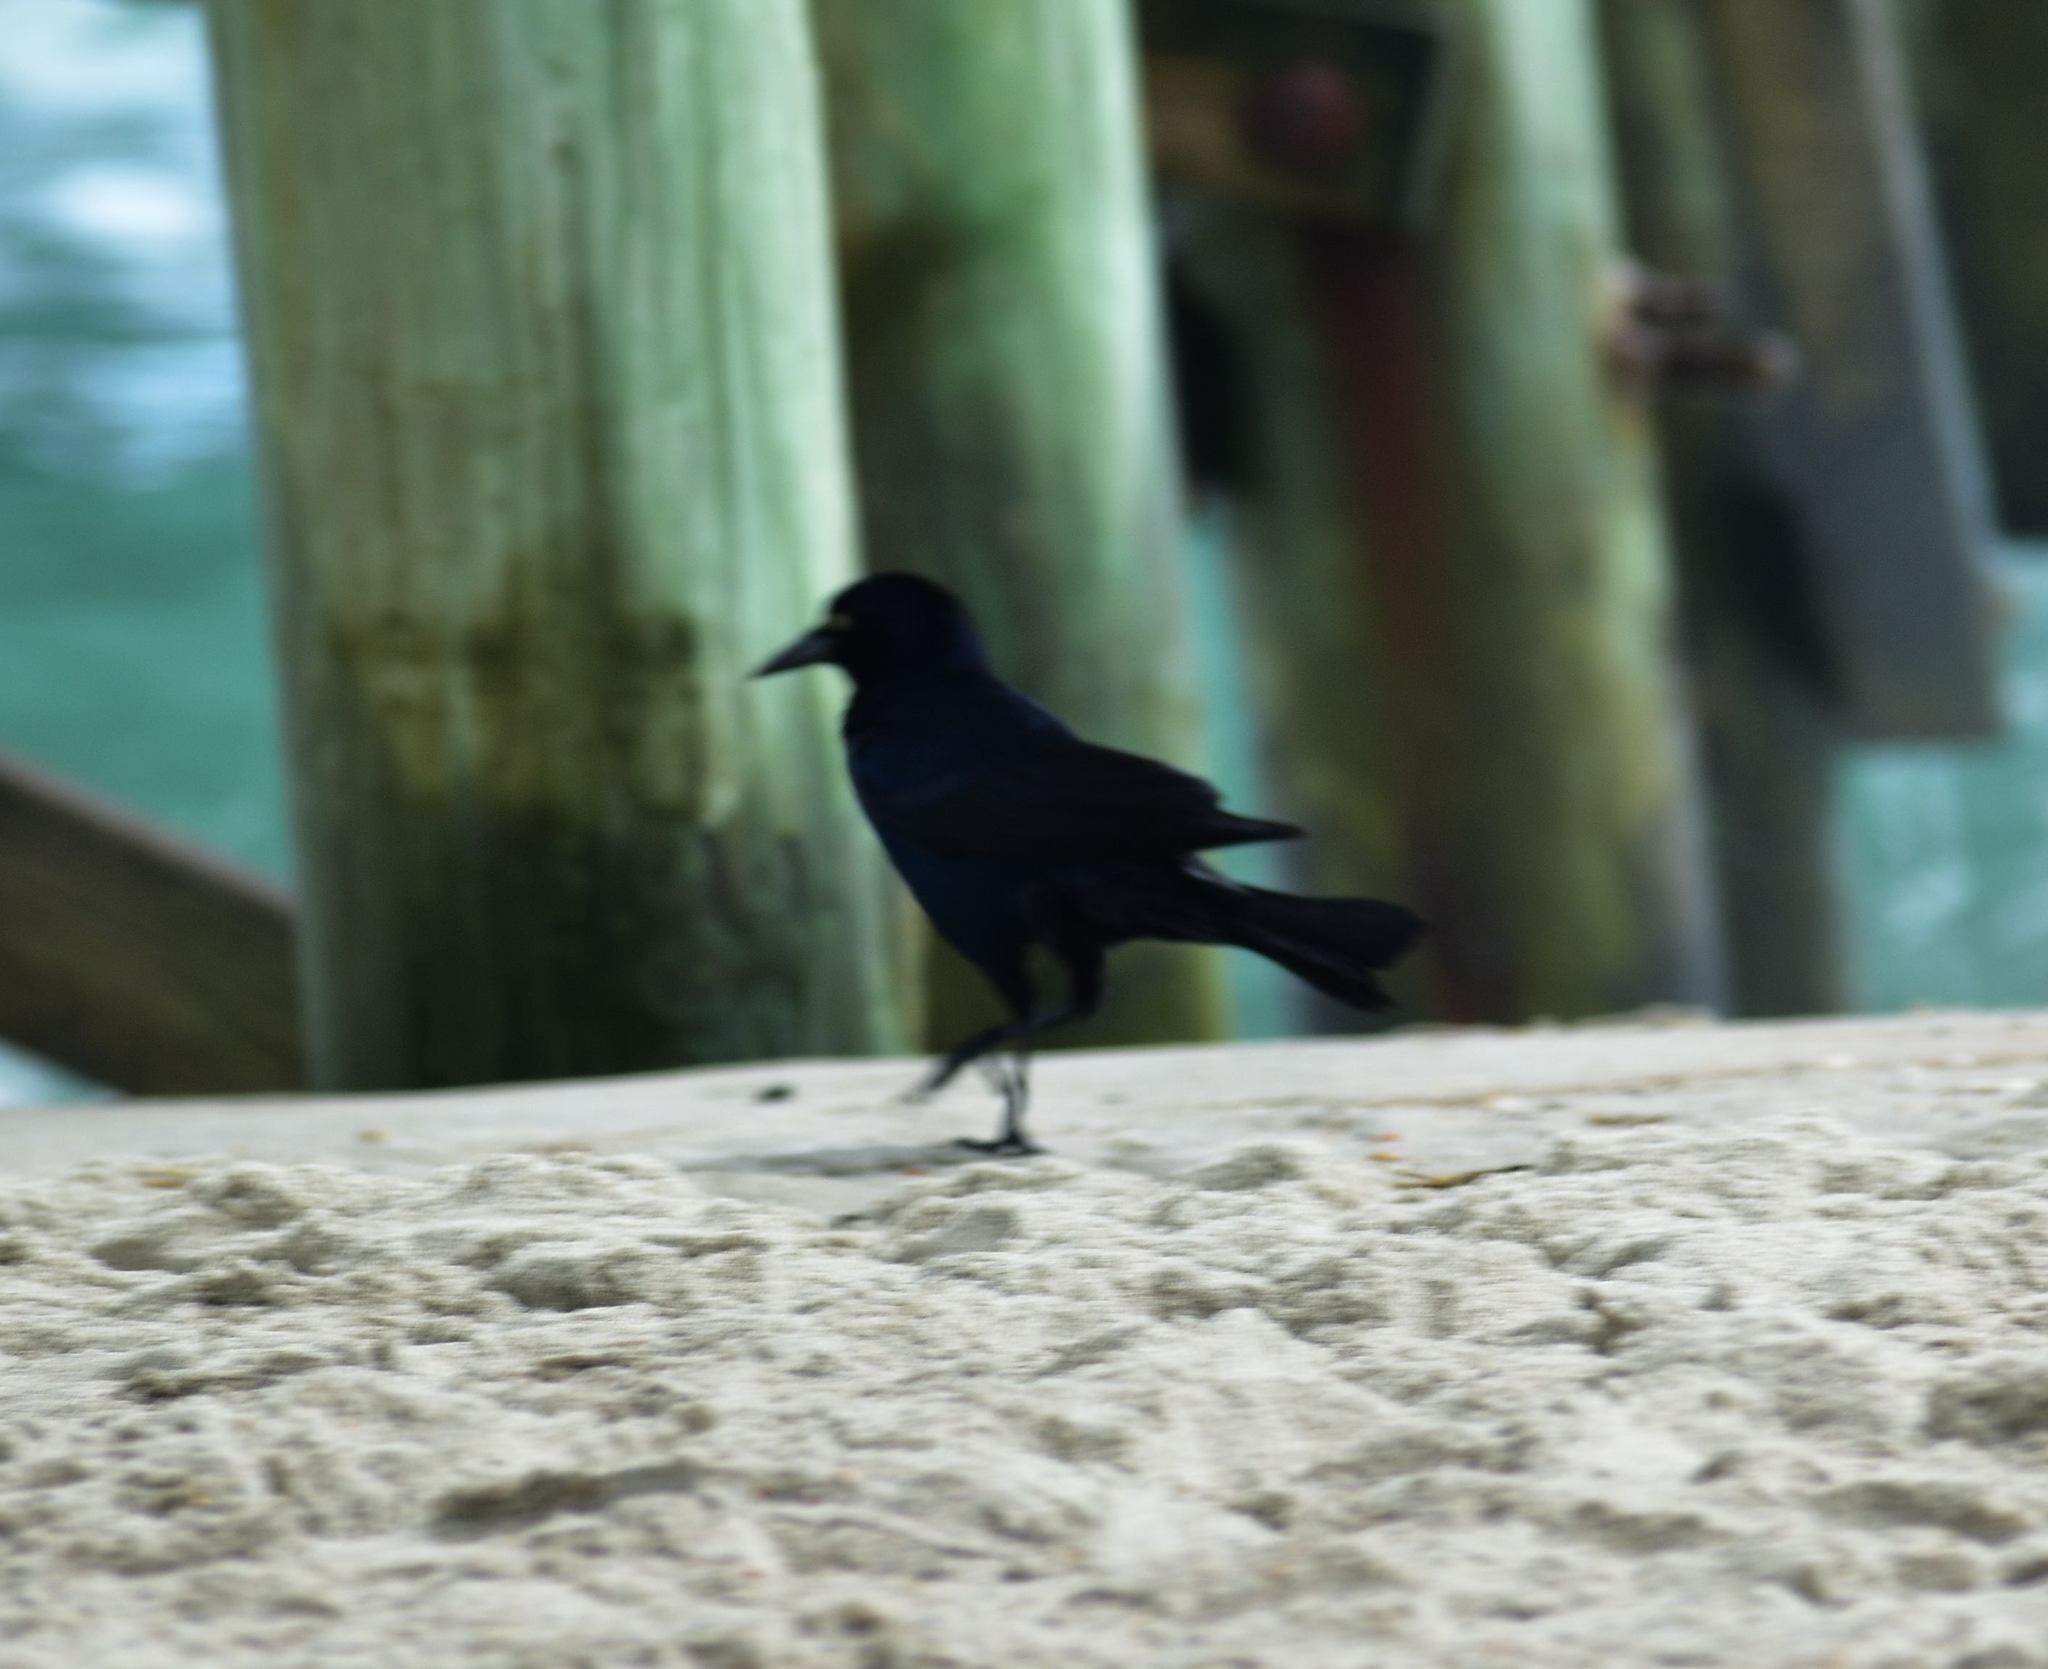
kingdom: Animalia
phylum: Chordata
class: Aves
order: Passeriformes
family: Icteridae
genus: Quiscalus
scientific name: Quiscalus major
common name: Boat-tailed grackle
